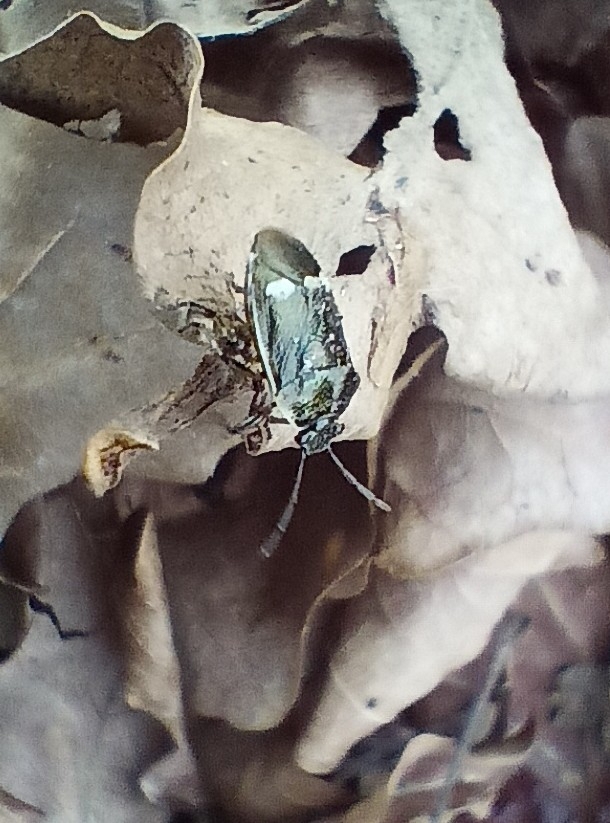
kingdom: Animalia
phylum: Arthropoda
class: Insecta
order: Hemiptera
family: Pentatomidae
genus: Eurydema
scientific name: Eurydema oleracea
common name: Cabbage bug
